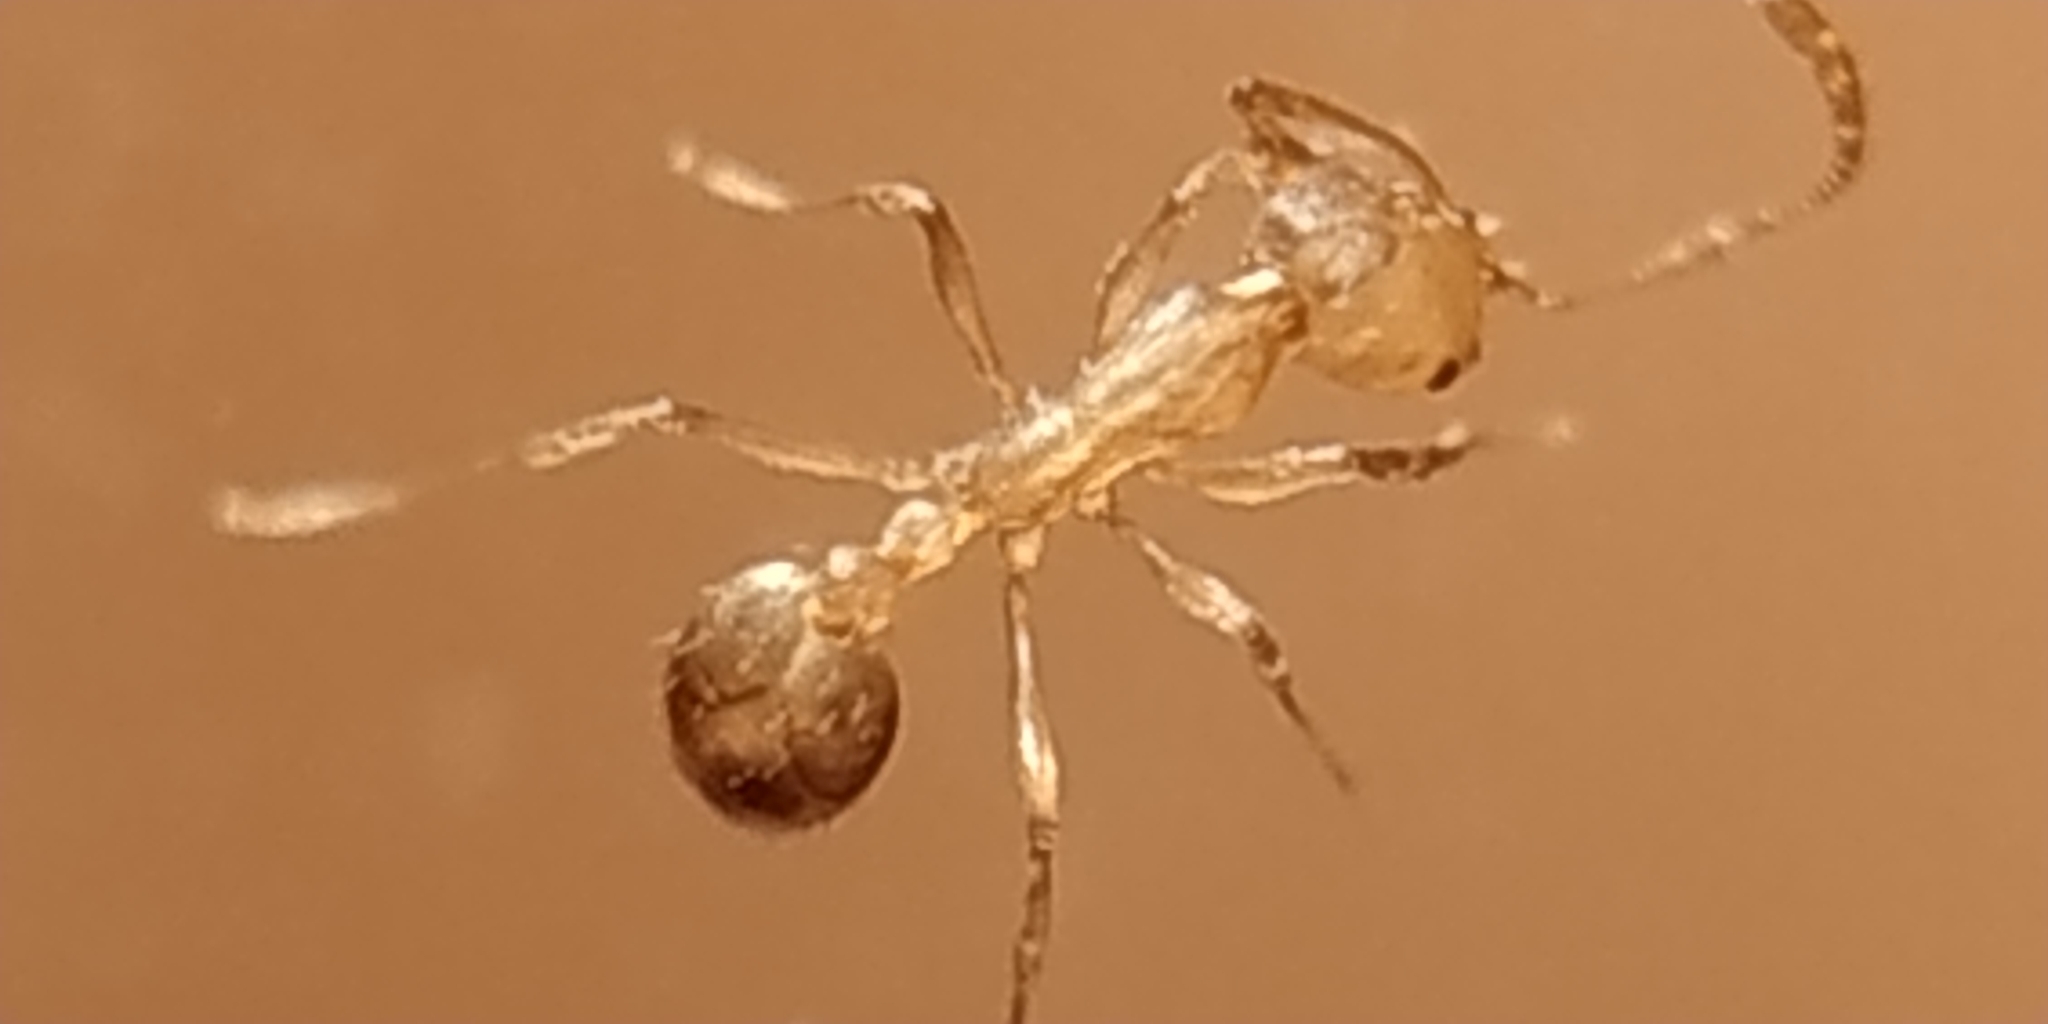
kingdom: Animalia
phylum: Arthropoda
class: Insecta
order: Hymenoptera
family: Formicidae
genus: Monomorium
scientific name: Monomorium pharaonis
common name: Pharaoh ant
